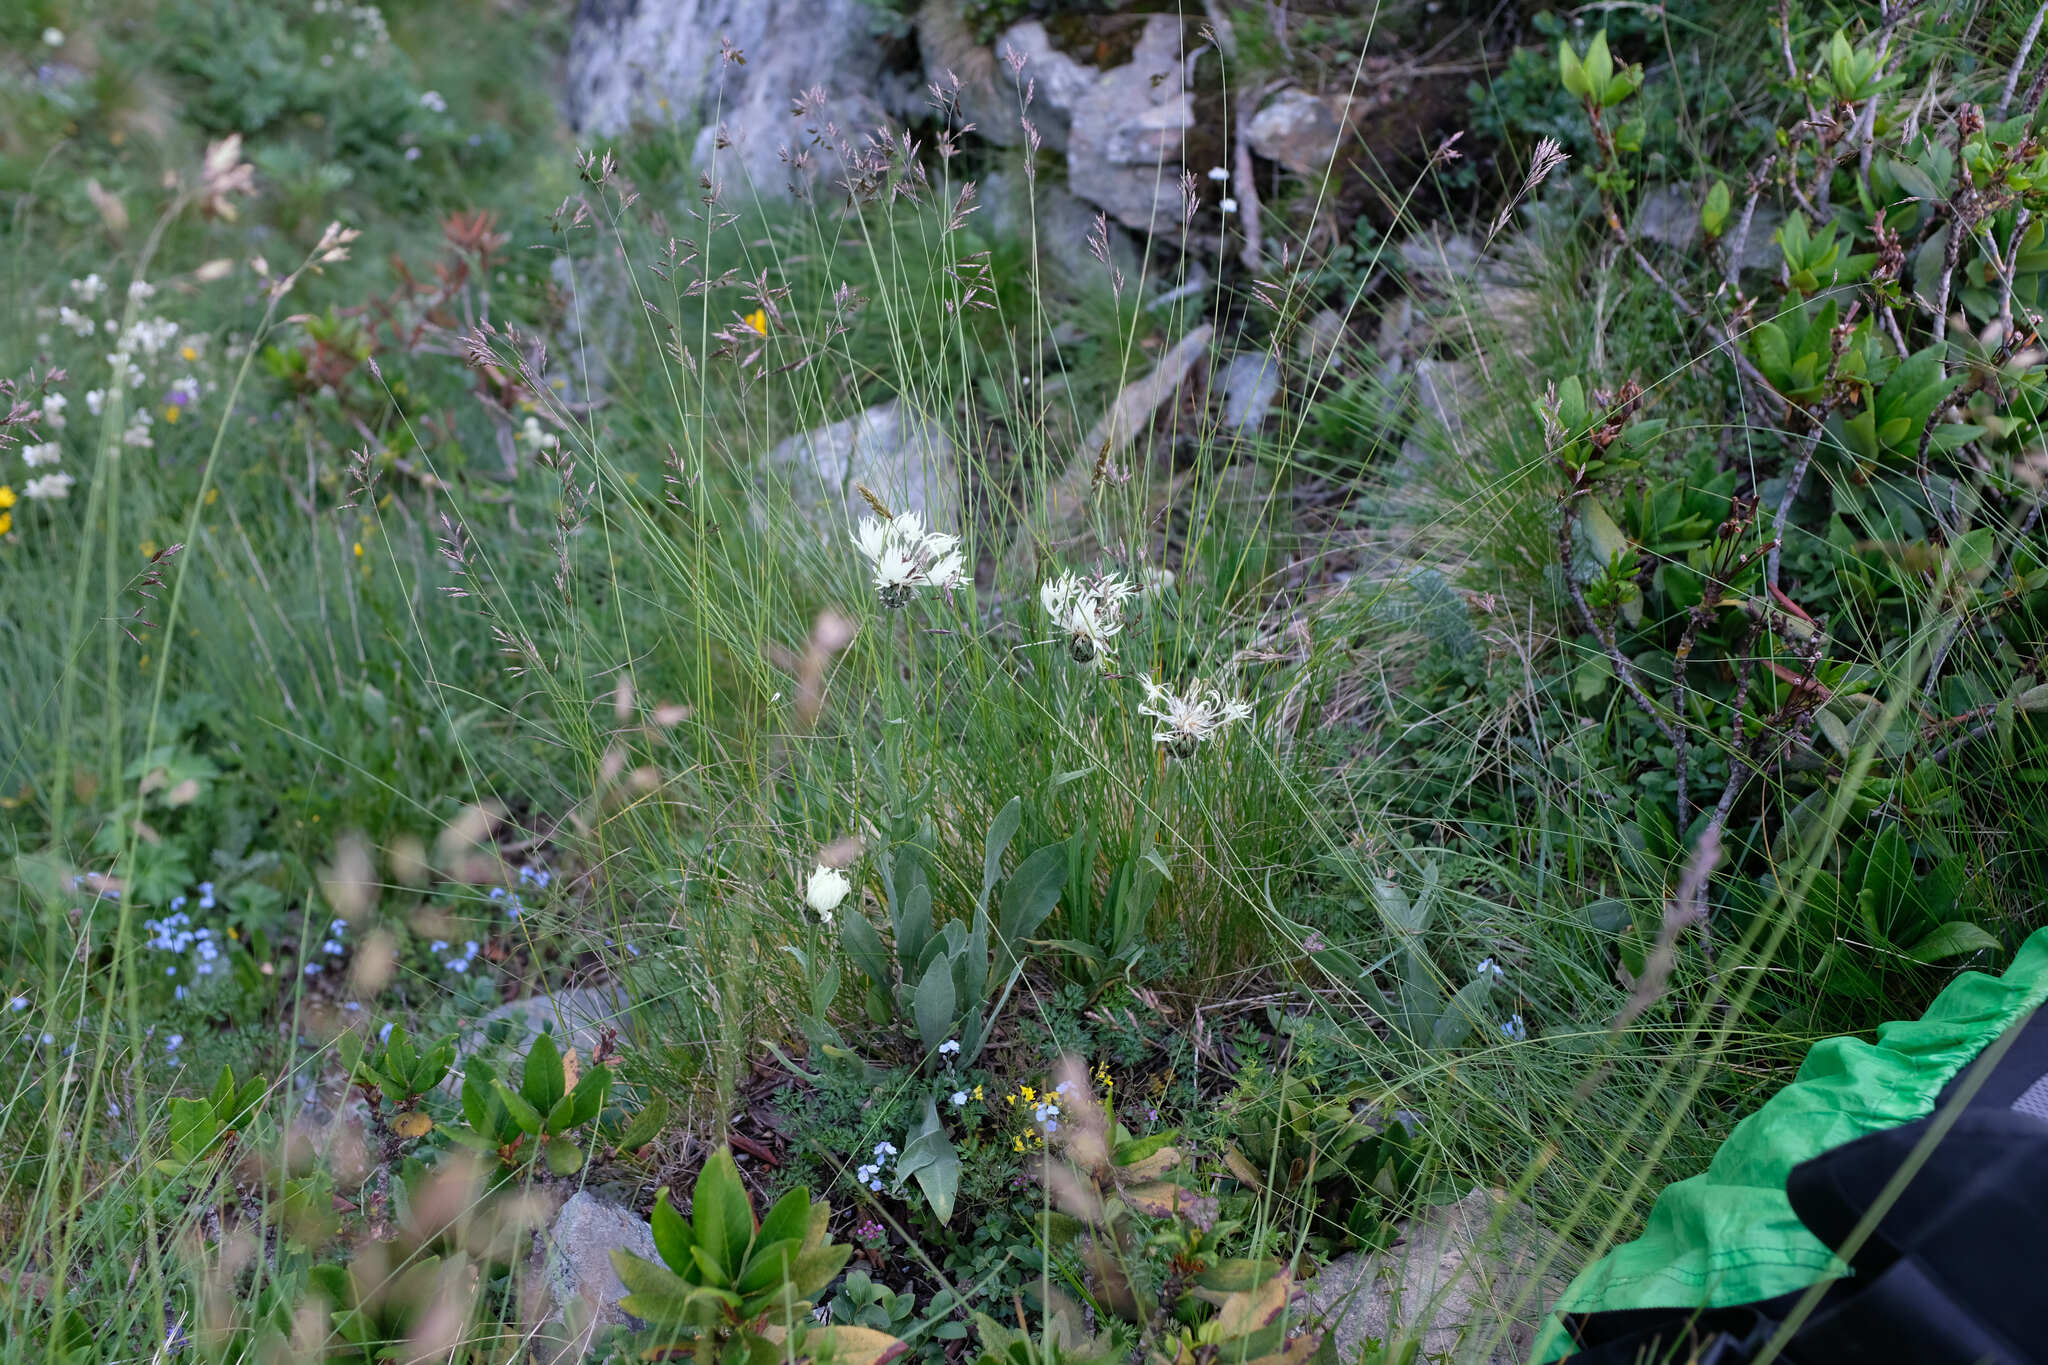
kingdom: Plantae
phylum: Tracheophyta
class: Magnoliopsida
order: Asterales
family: Asteraceae
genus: Centaurea
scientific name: Centaurea cheiranthifolia
